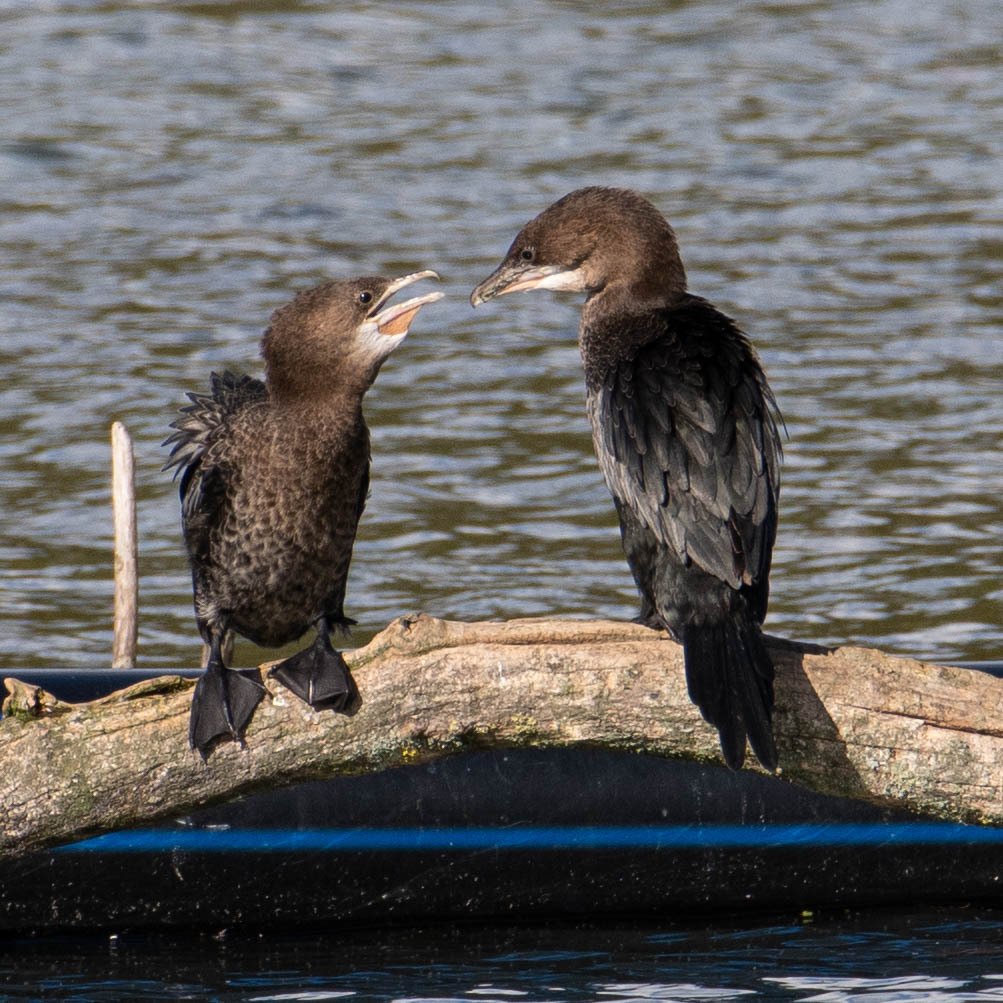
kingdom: Animalia
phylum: Chordata
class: Aves
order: Suliformes
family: Phalacrocoracidae
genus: Microcarbo
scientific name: Microcarbo pygmaeus
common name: Pygmy cormorant
